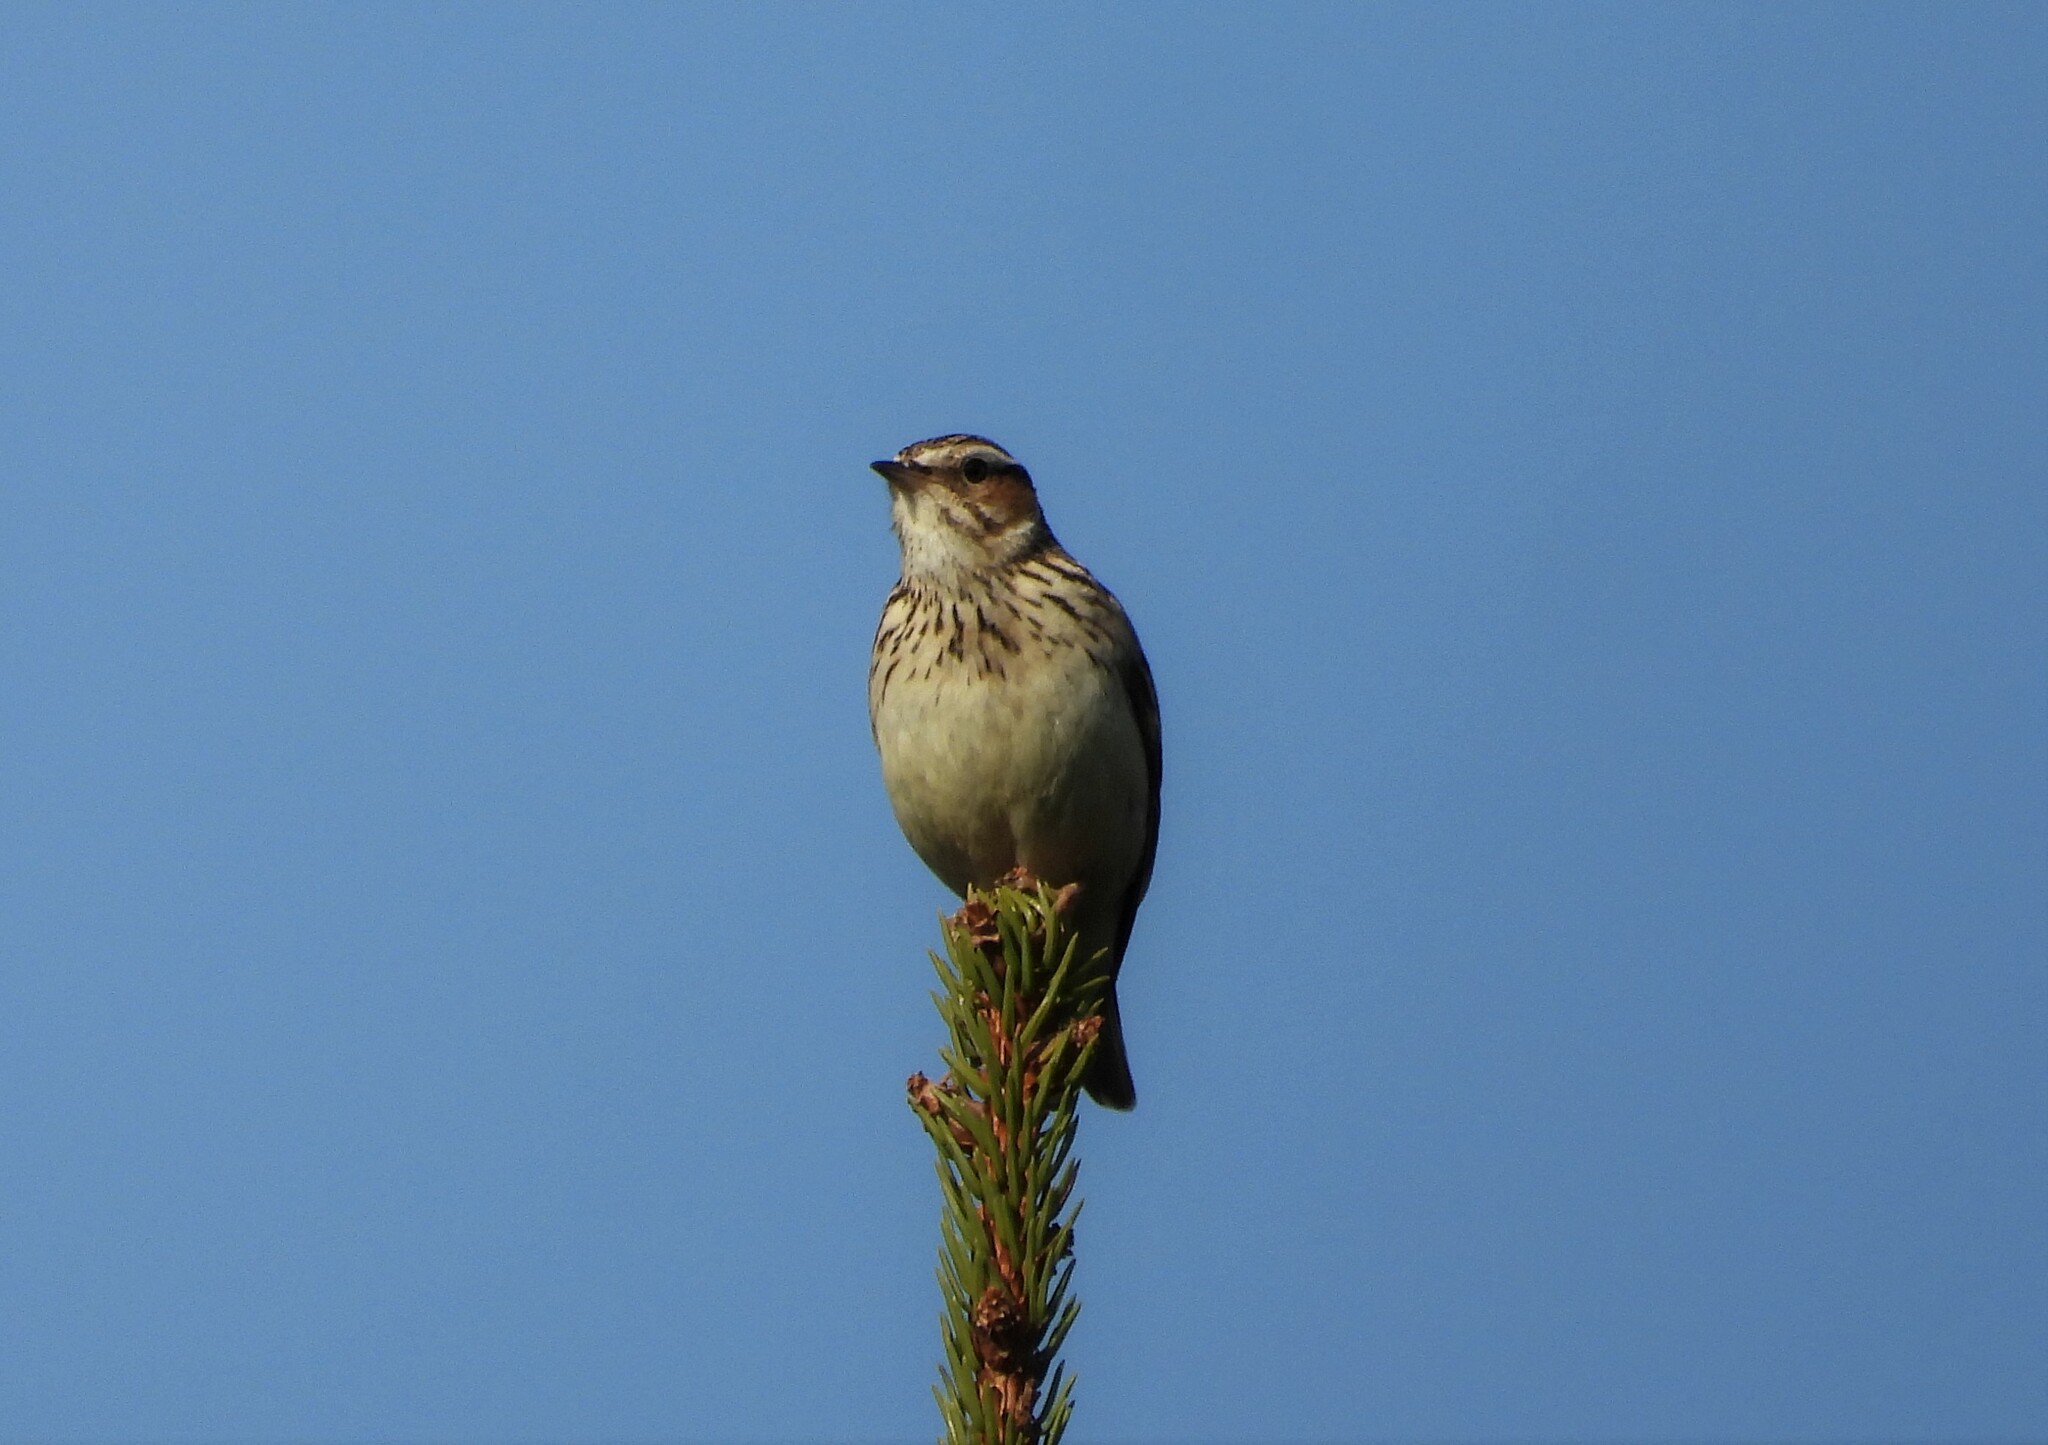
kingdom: Animalia
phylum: Chordata
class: Aves
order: Passeriformes
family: Alaudidae
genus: Lullula
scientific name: Lullula arborea
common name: Woodlark
